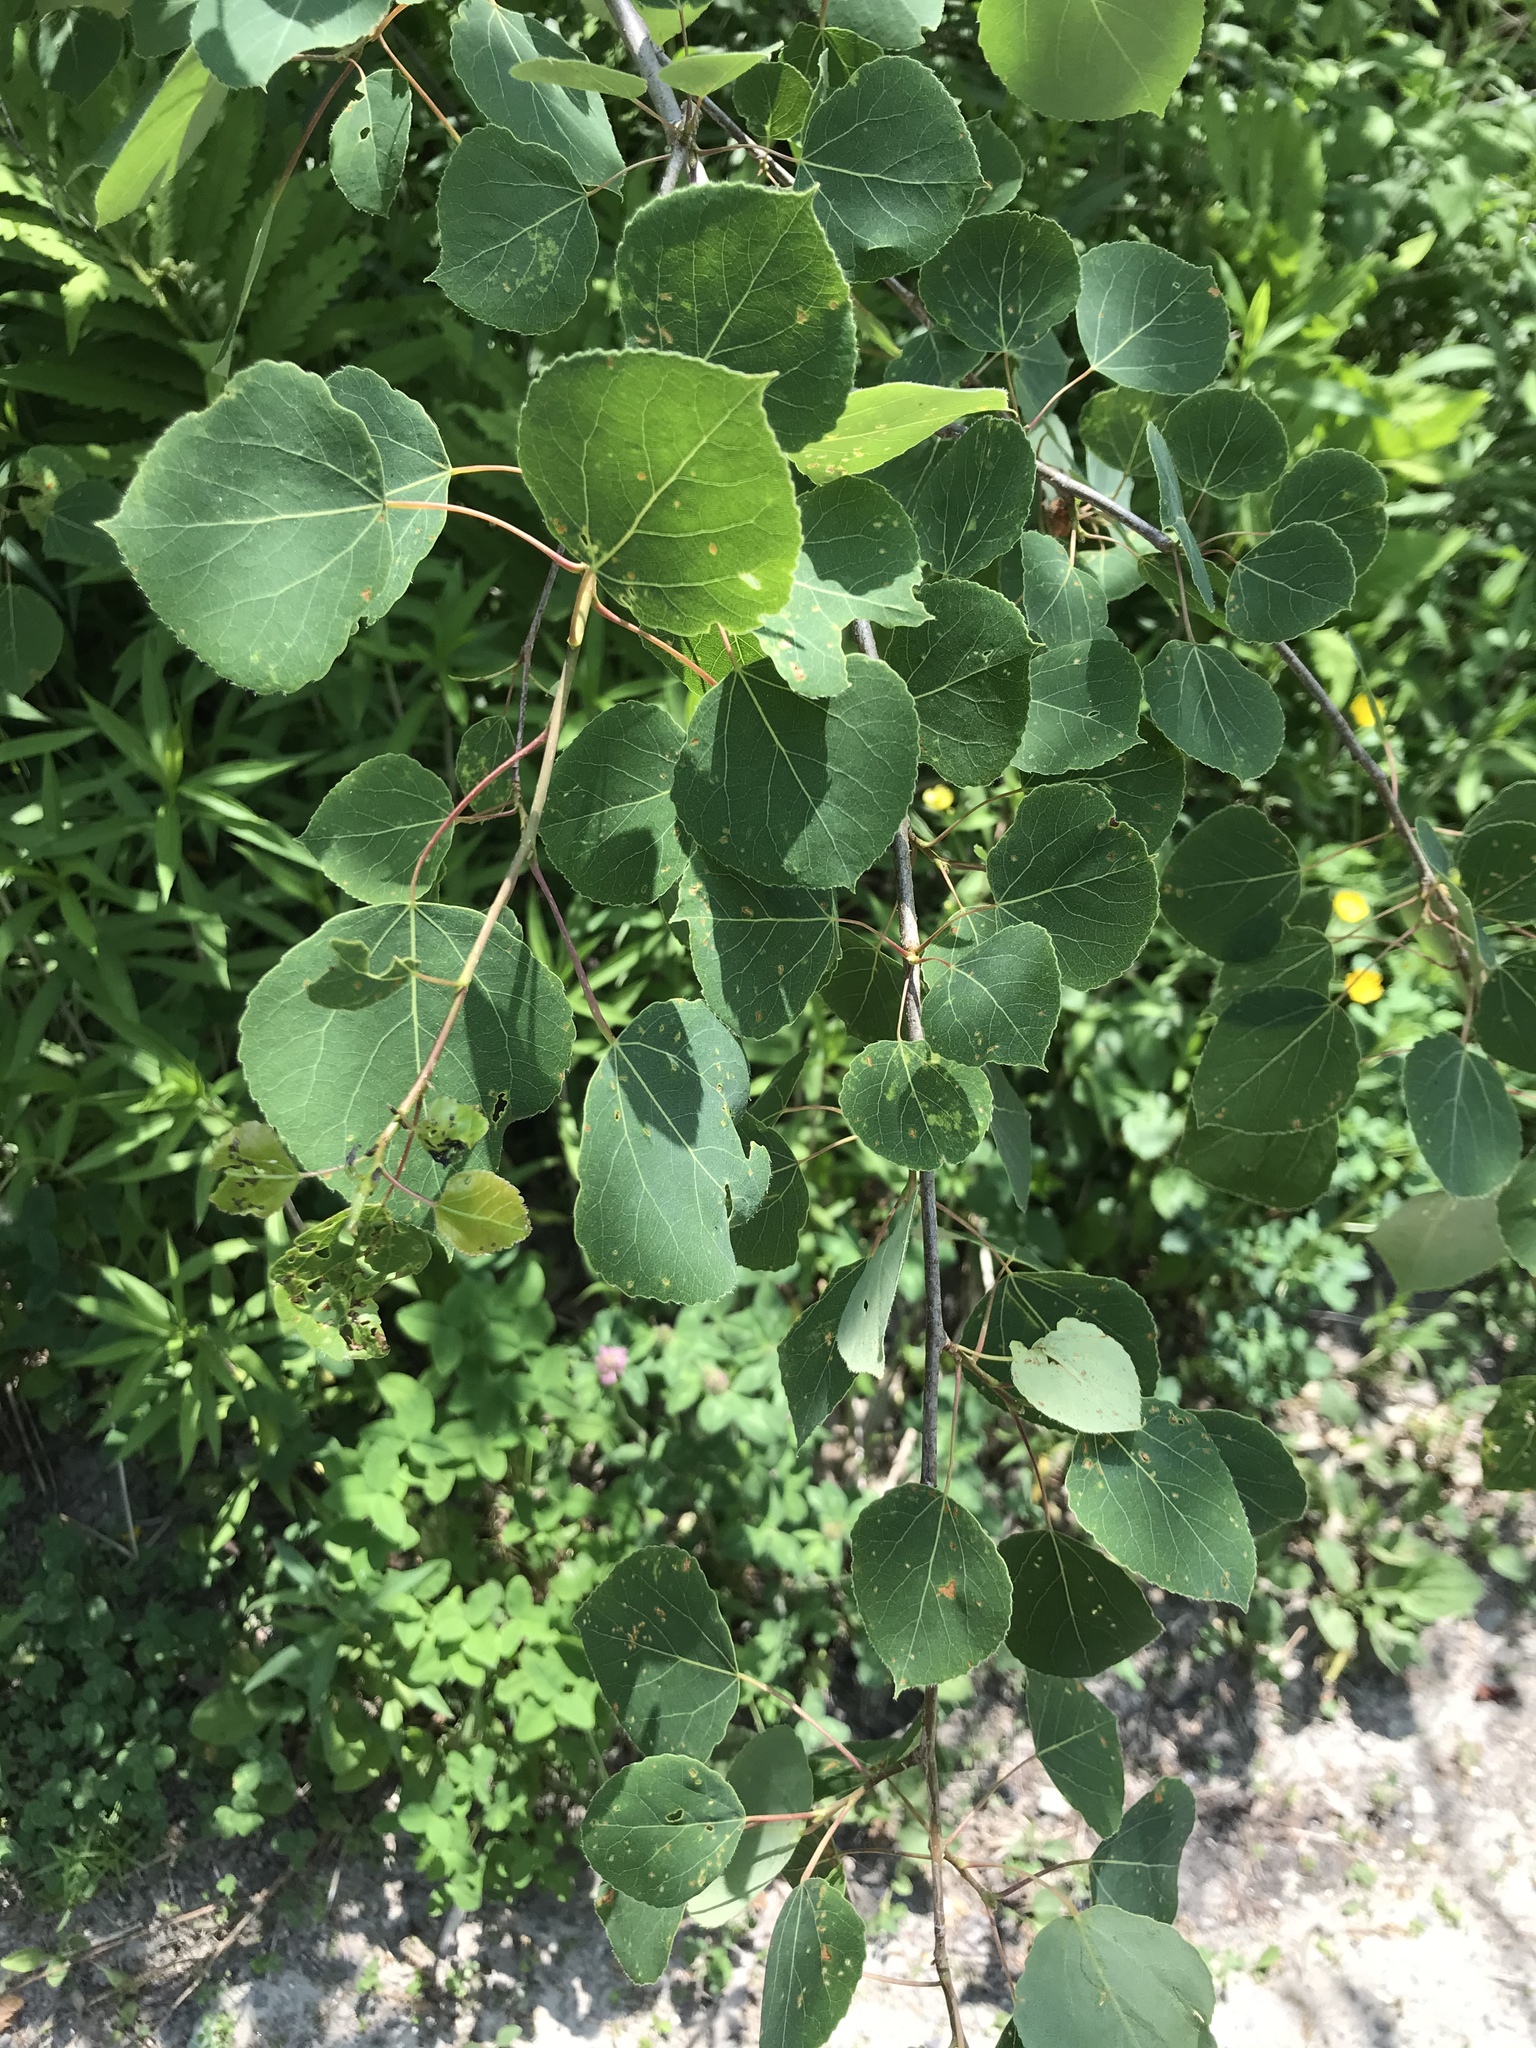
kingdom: Plantae
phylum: Tracheophyta
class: Magnoliopsida
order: Malpighiales
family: Salicaceae
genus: Populus
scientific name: Populus tremuloides
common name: Quaking aspen
